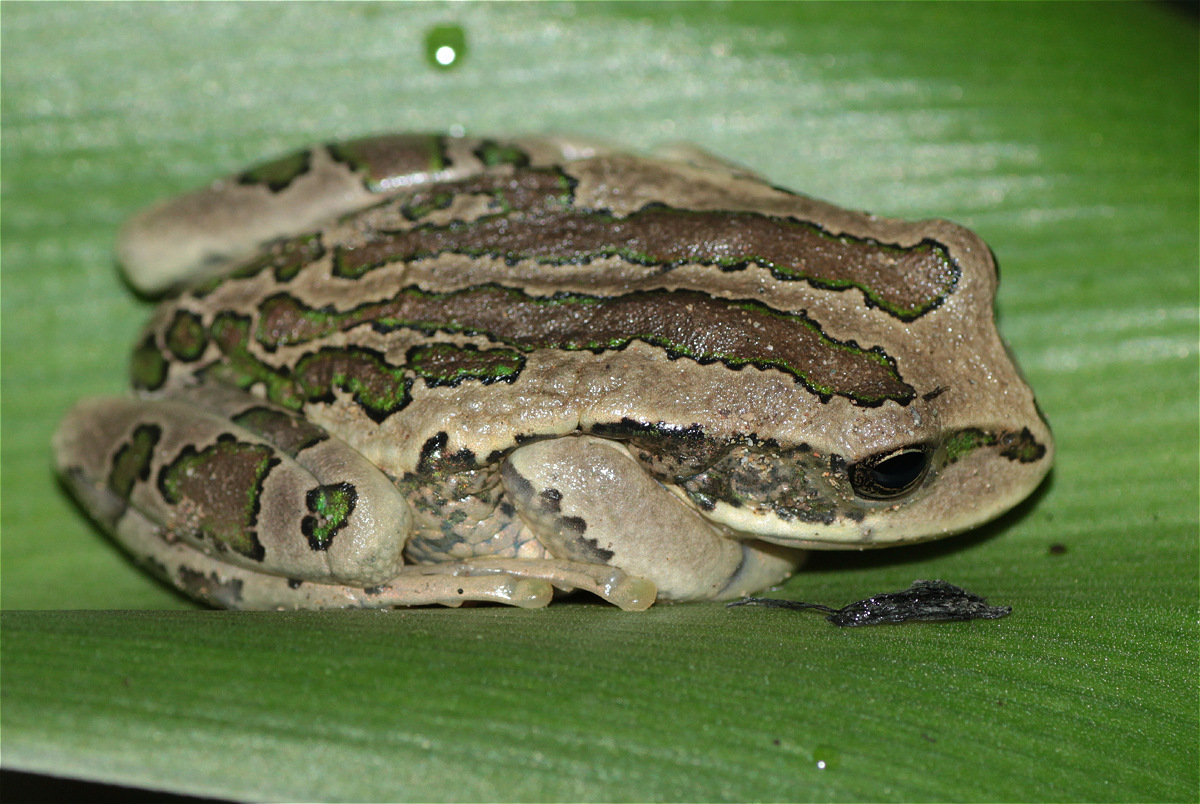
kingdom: Animalia
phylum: Chordata
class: Amphibia
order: Anura
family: Hemiphractidae
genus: Gastrotheca
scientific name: Gastrotheca cuencana
